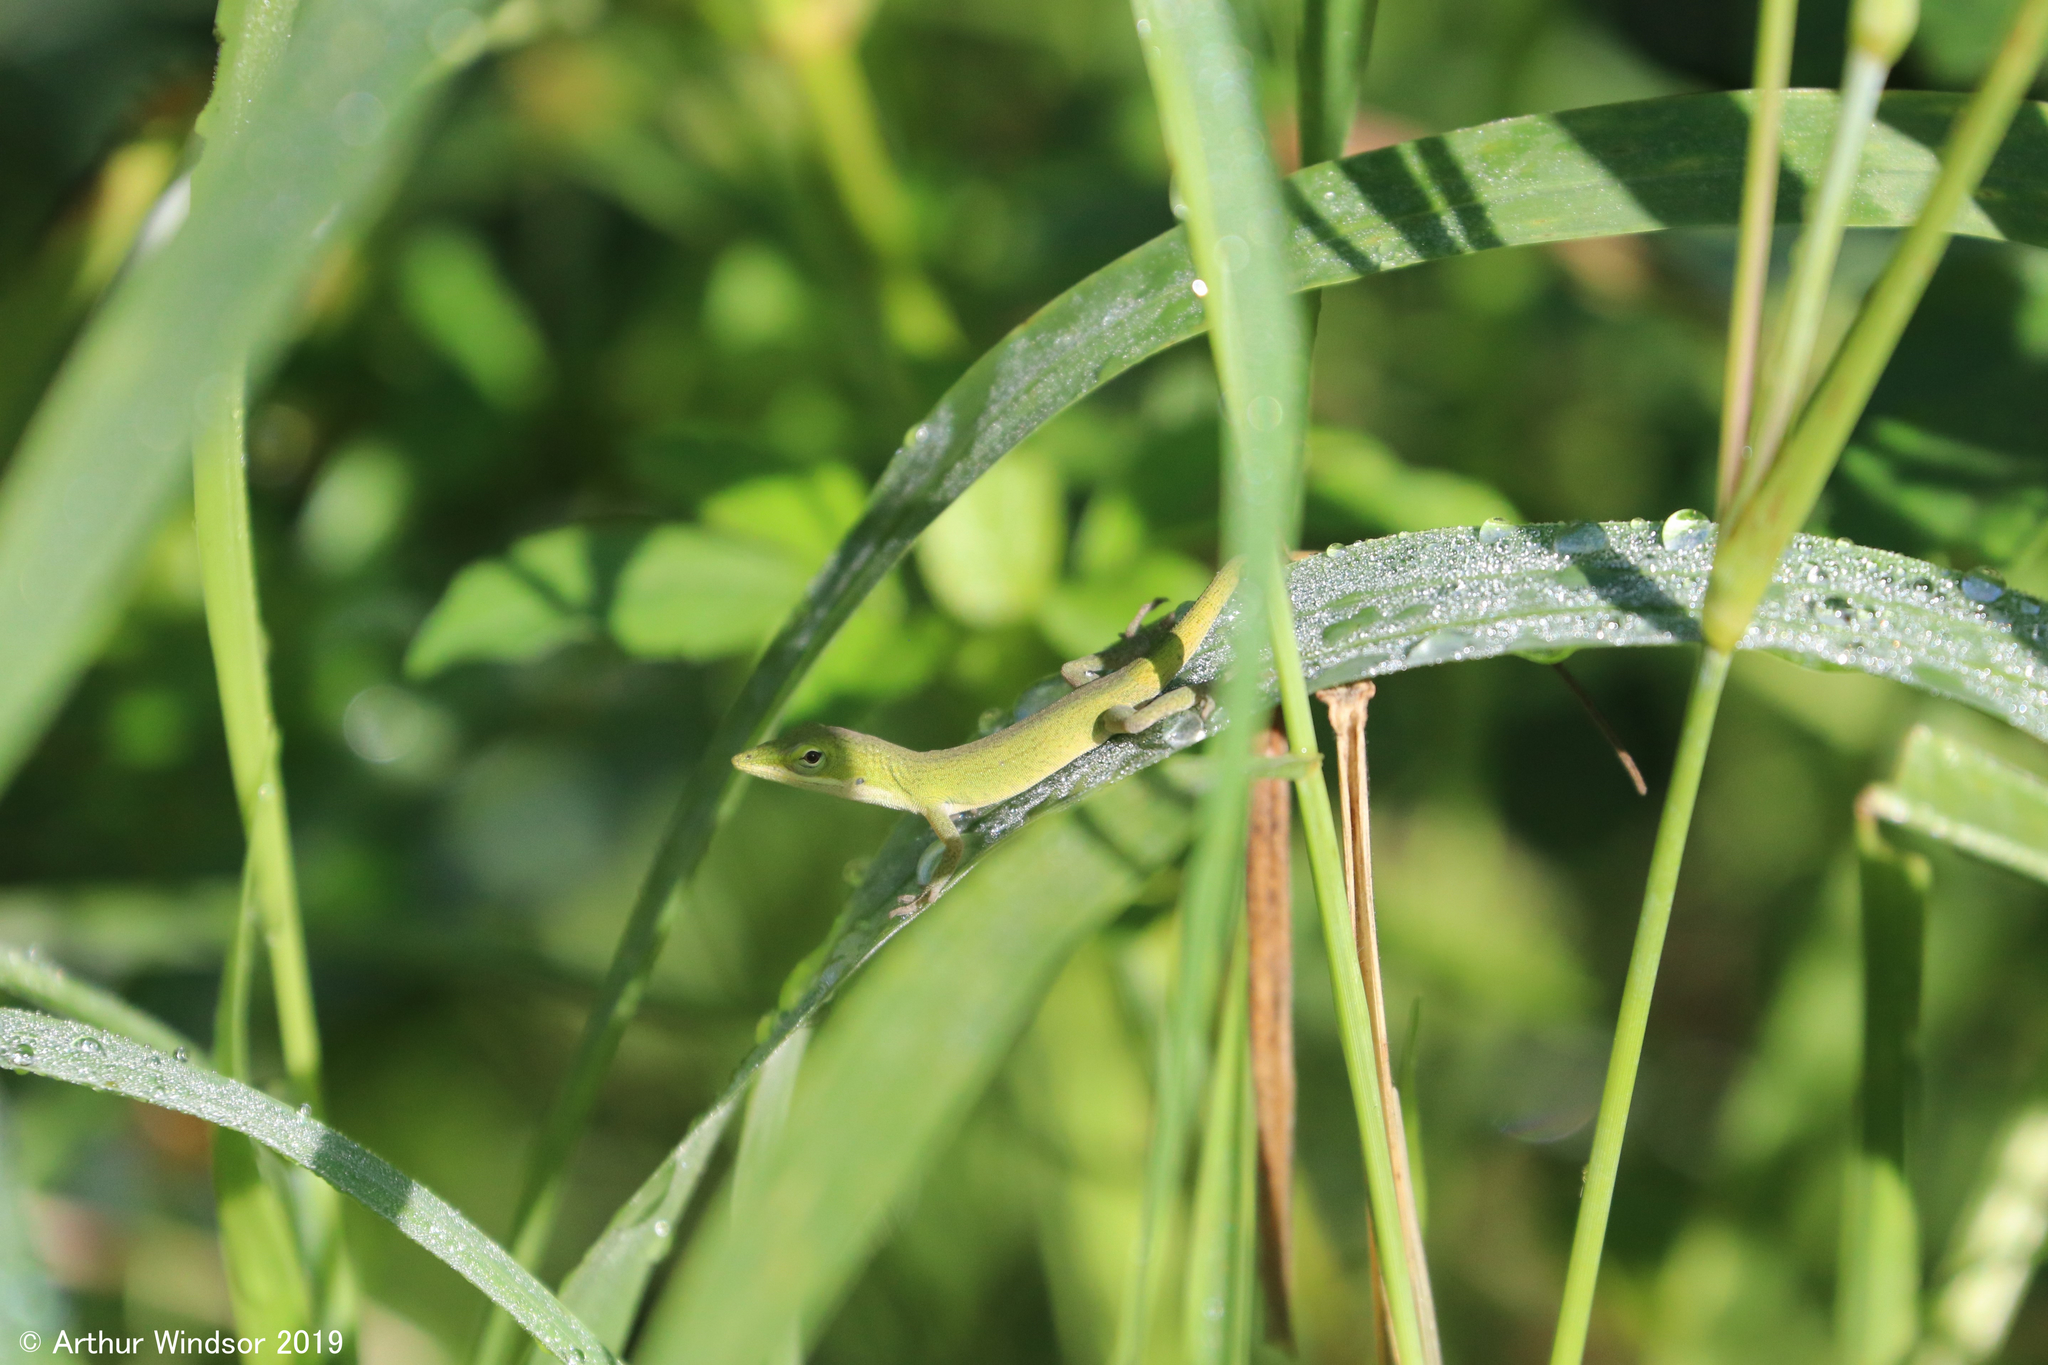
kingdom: Animalia
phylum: Chordata
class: Squamata
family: Dactyloidae
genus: Anolis
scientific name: Anolis carolinensis
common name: Green anole
